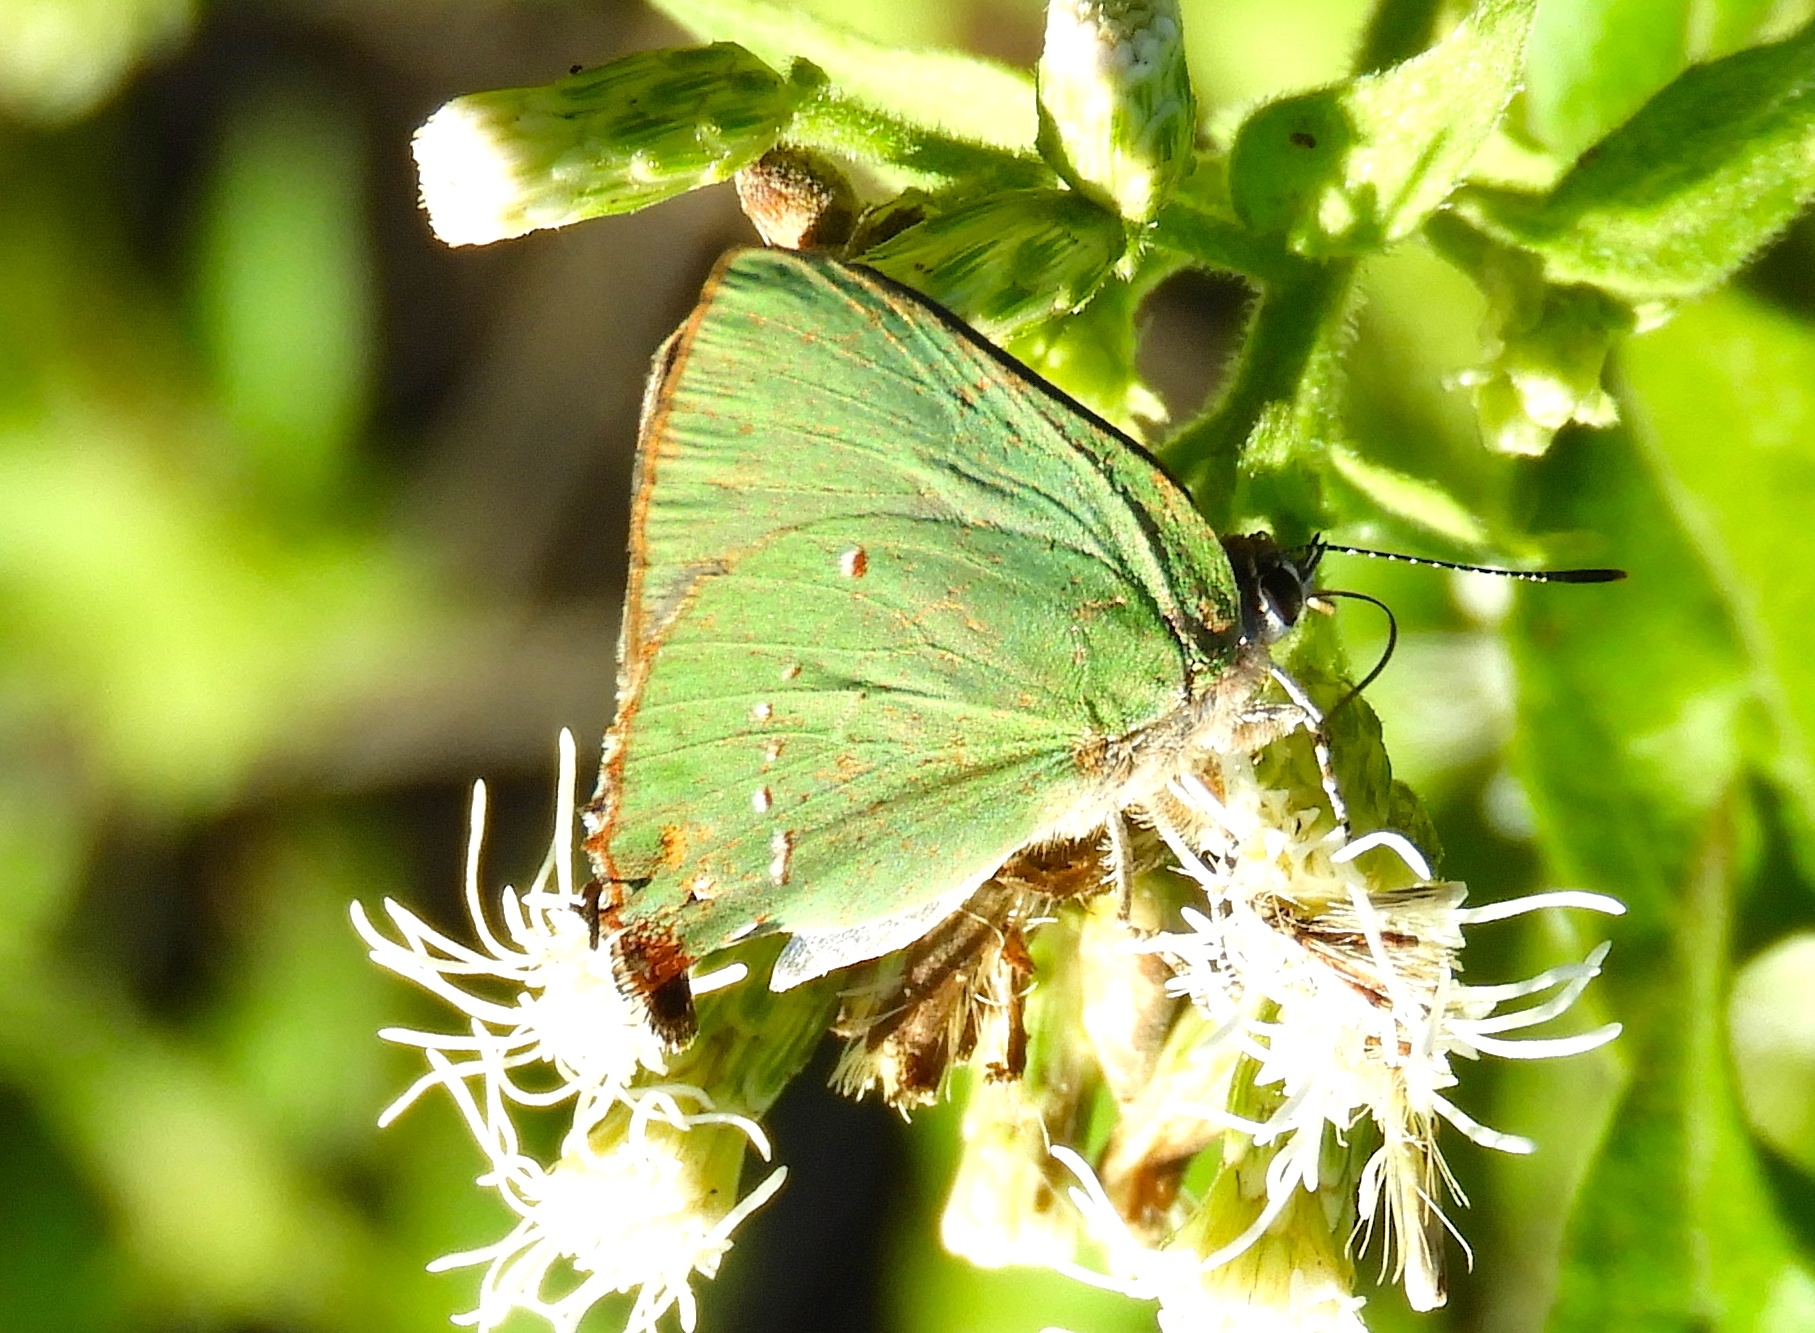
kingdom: Animalia
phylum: Arthropoda
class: Insecta
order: Lepidoptera
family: Lycaenidae
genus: Thecla
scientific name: Thecla herodotus
